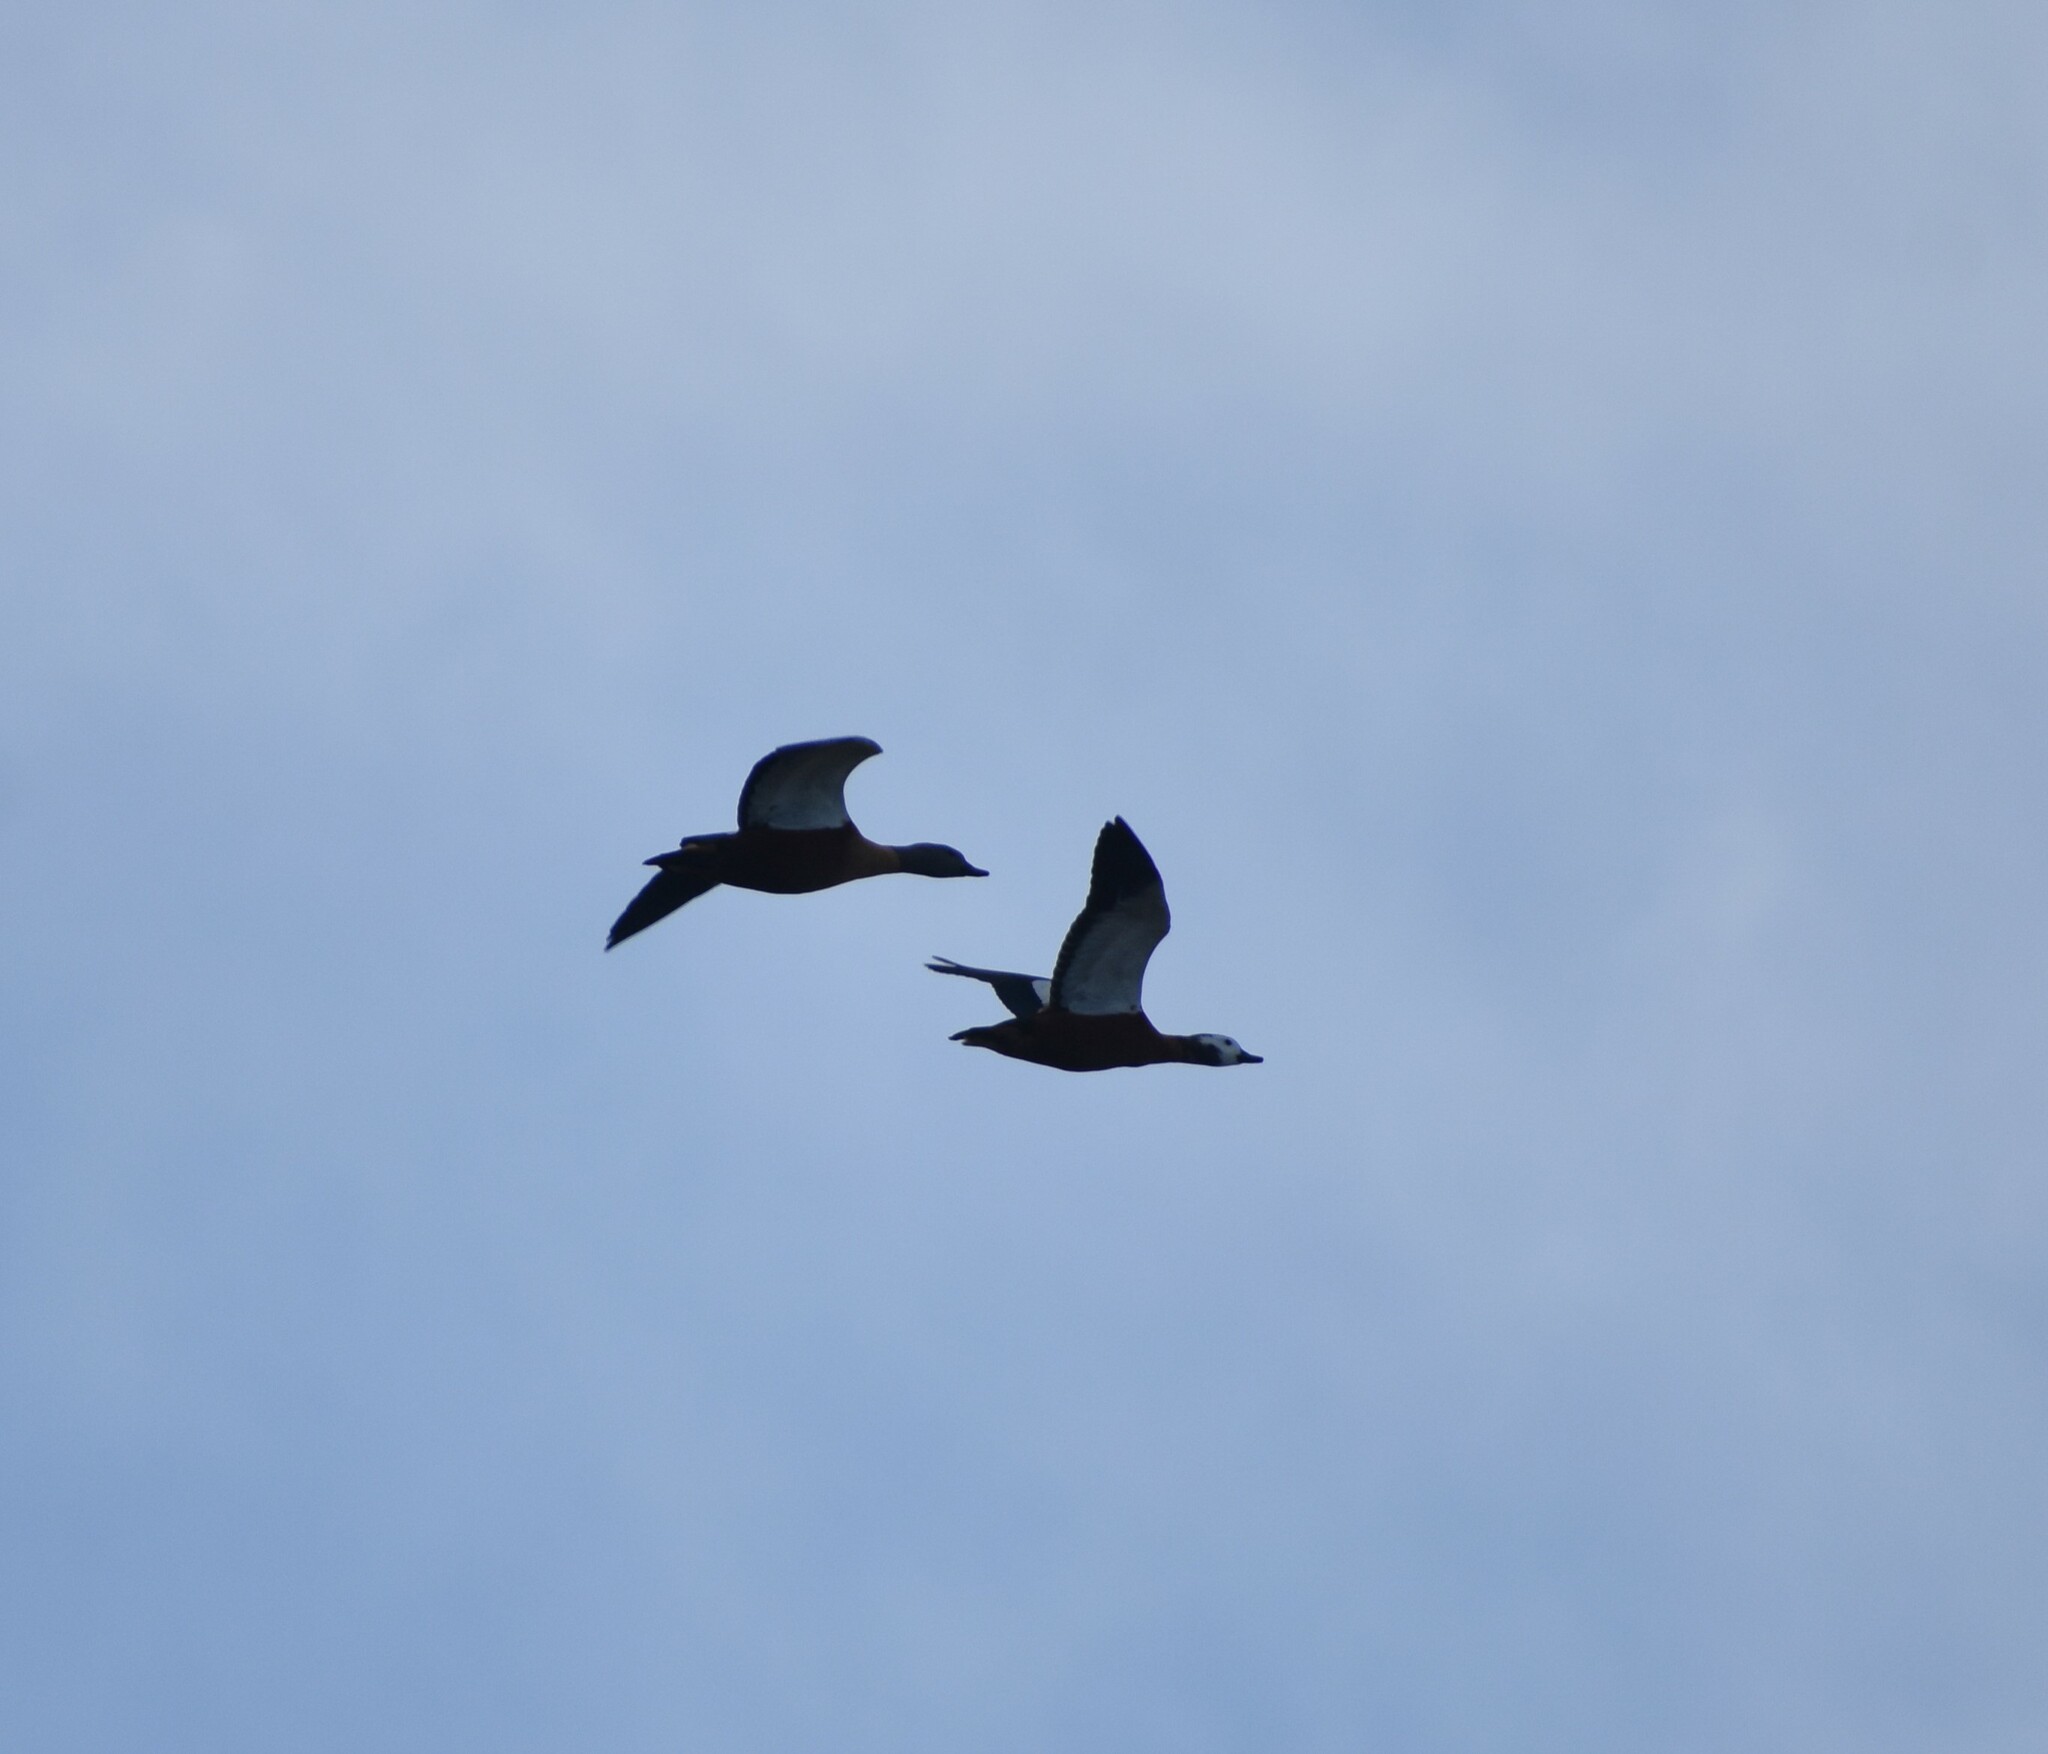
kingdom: Animalia
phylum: Chordata
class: Aves
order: Anseriformes
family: Anatidae
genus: Tadorna
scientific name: Tadorna cana
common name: South african shelduck
